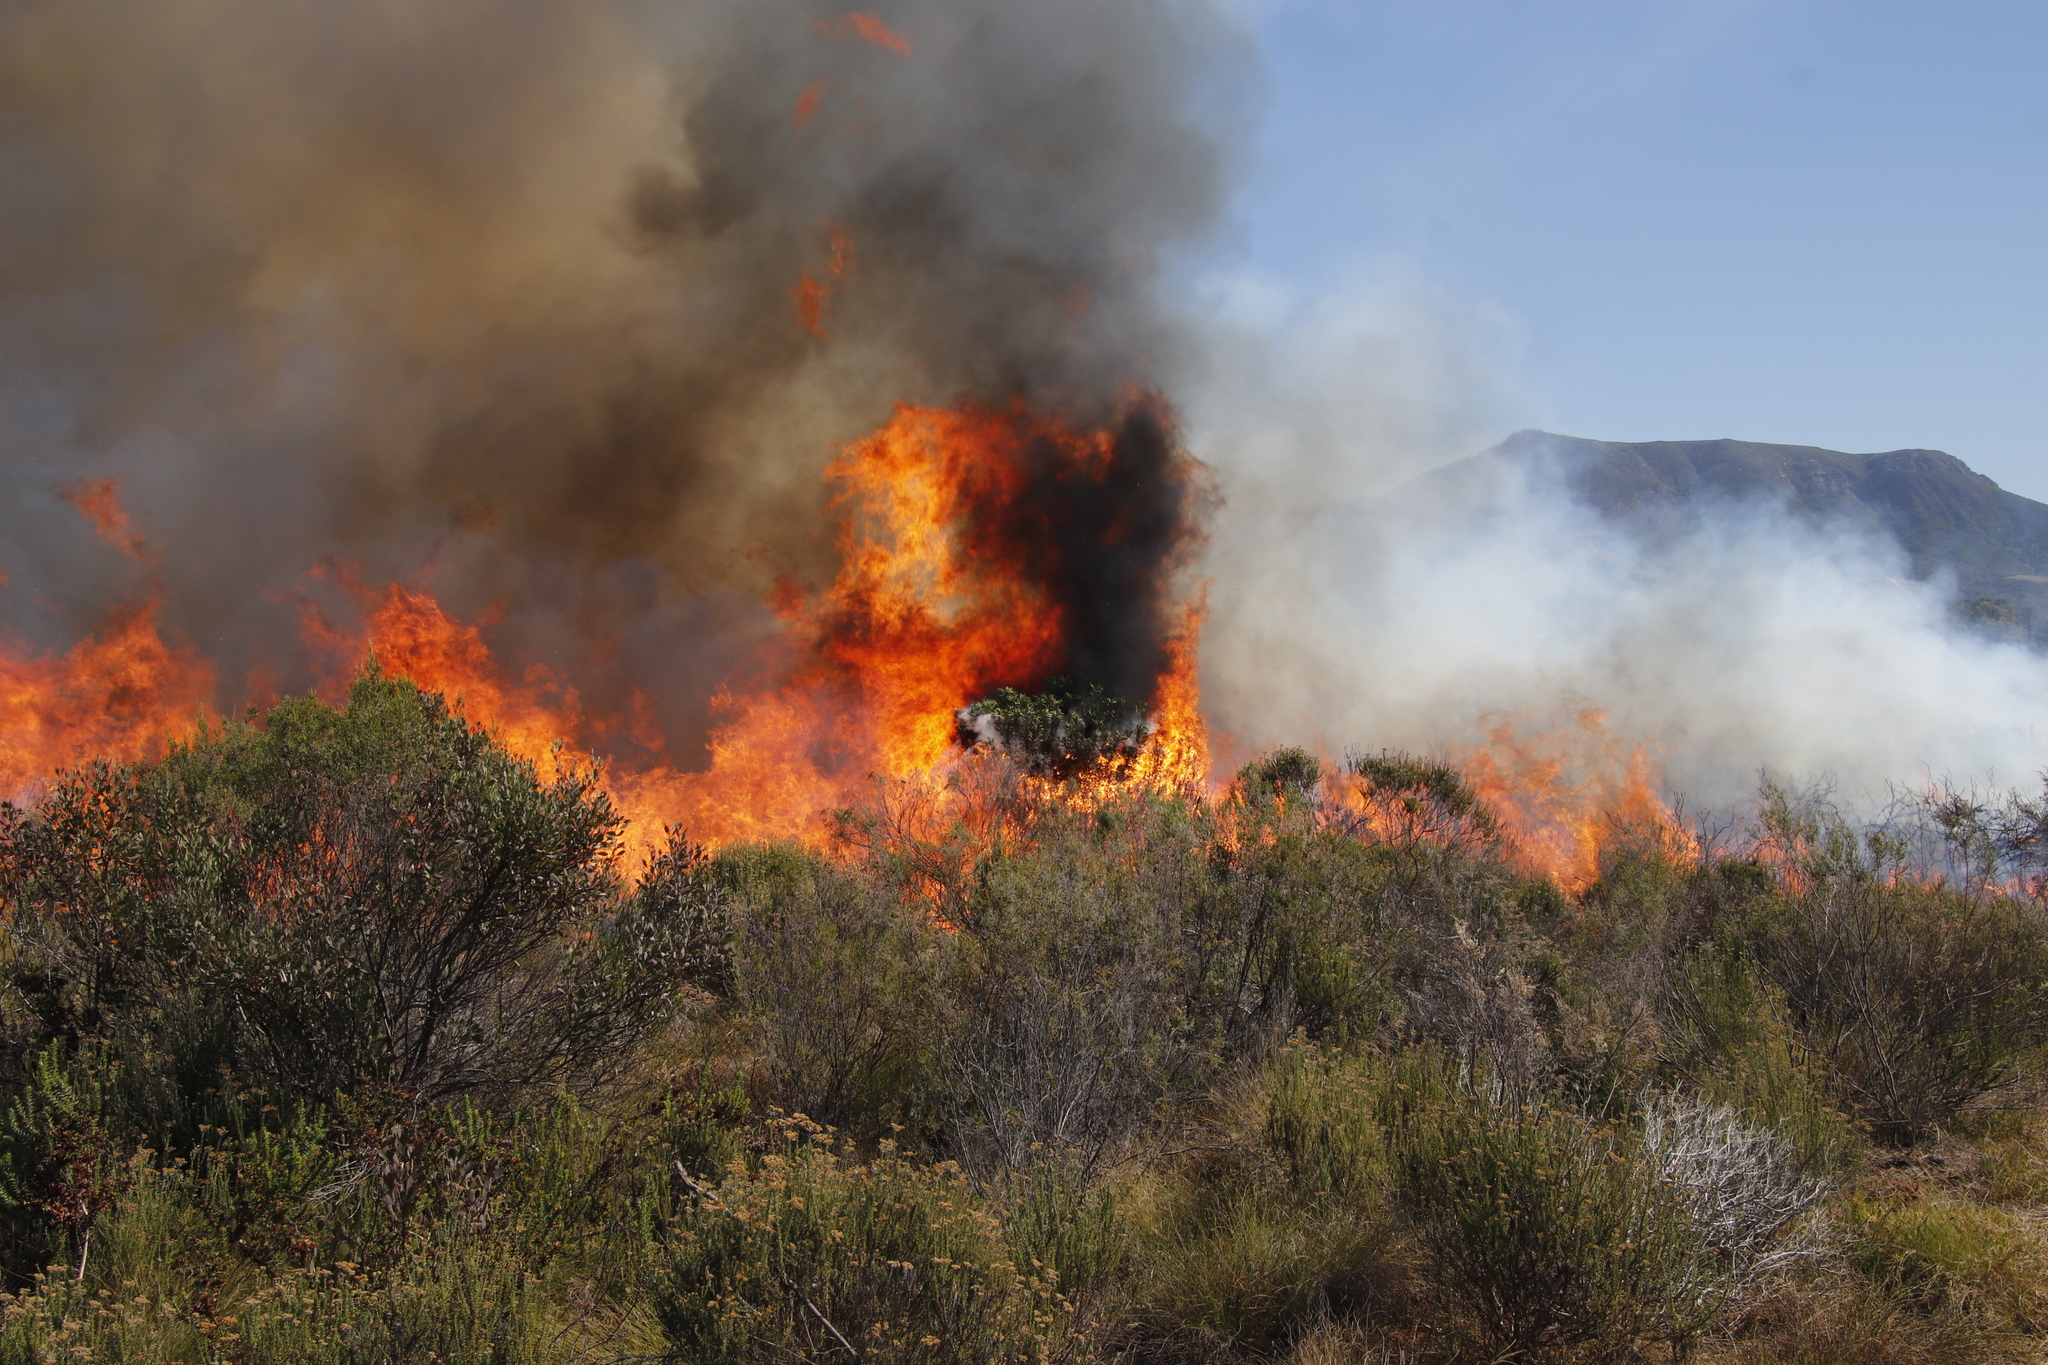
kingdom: Plantae
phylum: Tracheophyta
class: Magnoliopsida
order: Malvales
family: Thymelaeaceae
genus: Passerina
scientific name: Passerina corymbosa
